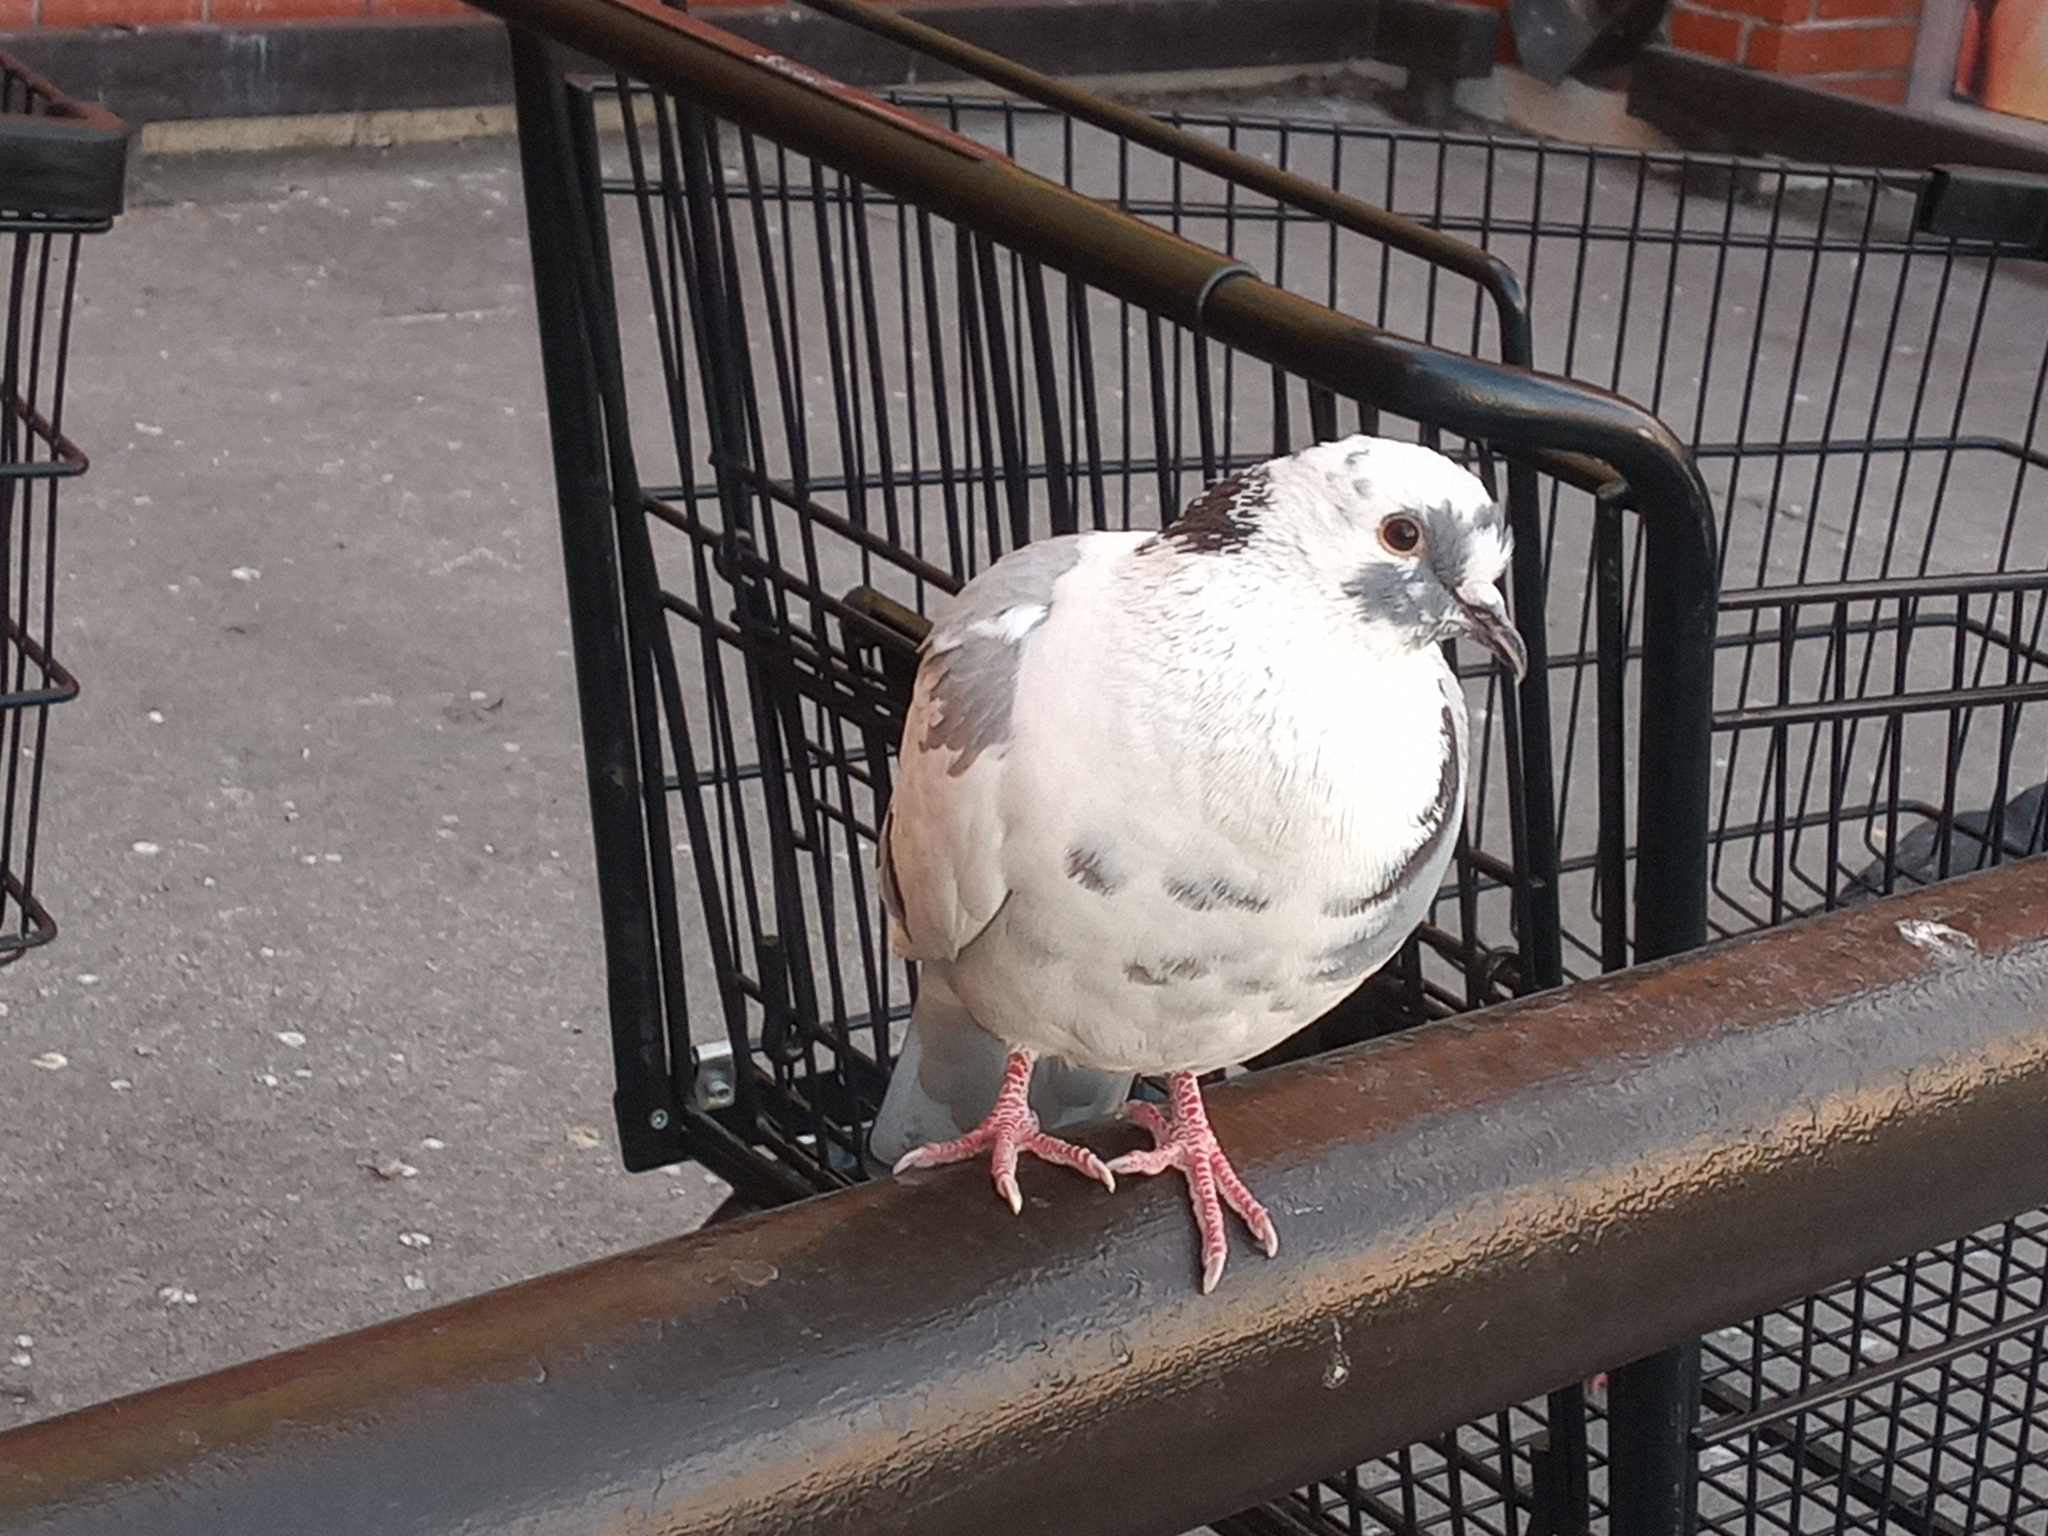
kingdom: Animalia
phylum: Chordata
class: Aves
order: Columbiformes
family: Columbidae
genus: Columba
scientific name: Columba livia
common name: Rock pigeon
